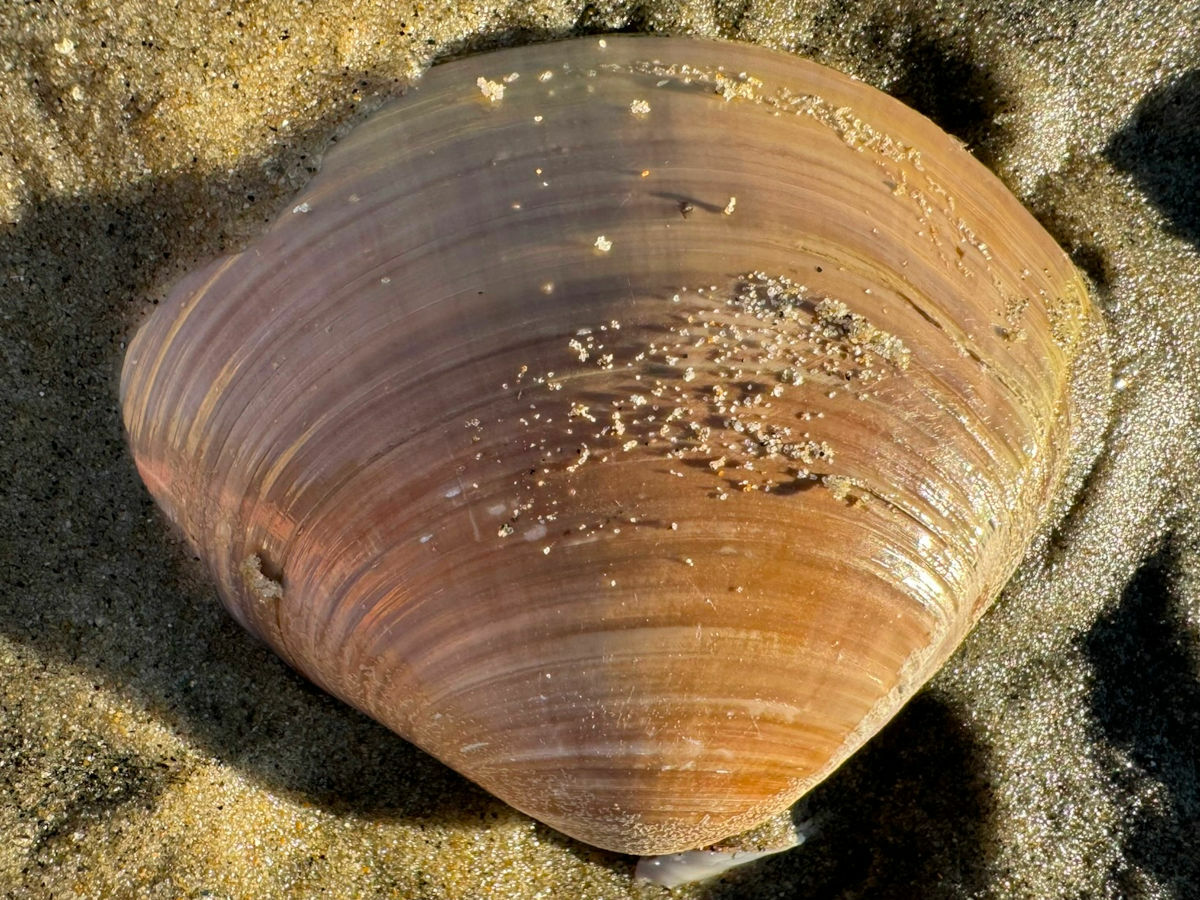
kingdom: Animalia
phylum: Mollusca
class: Bivalvia
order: Venerida
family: Veneridae
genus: Tivela
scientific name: Tivela stultorum
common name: Pismo clam
